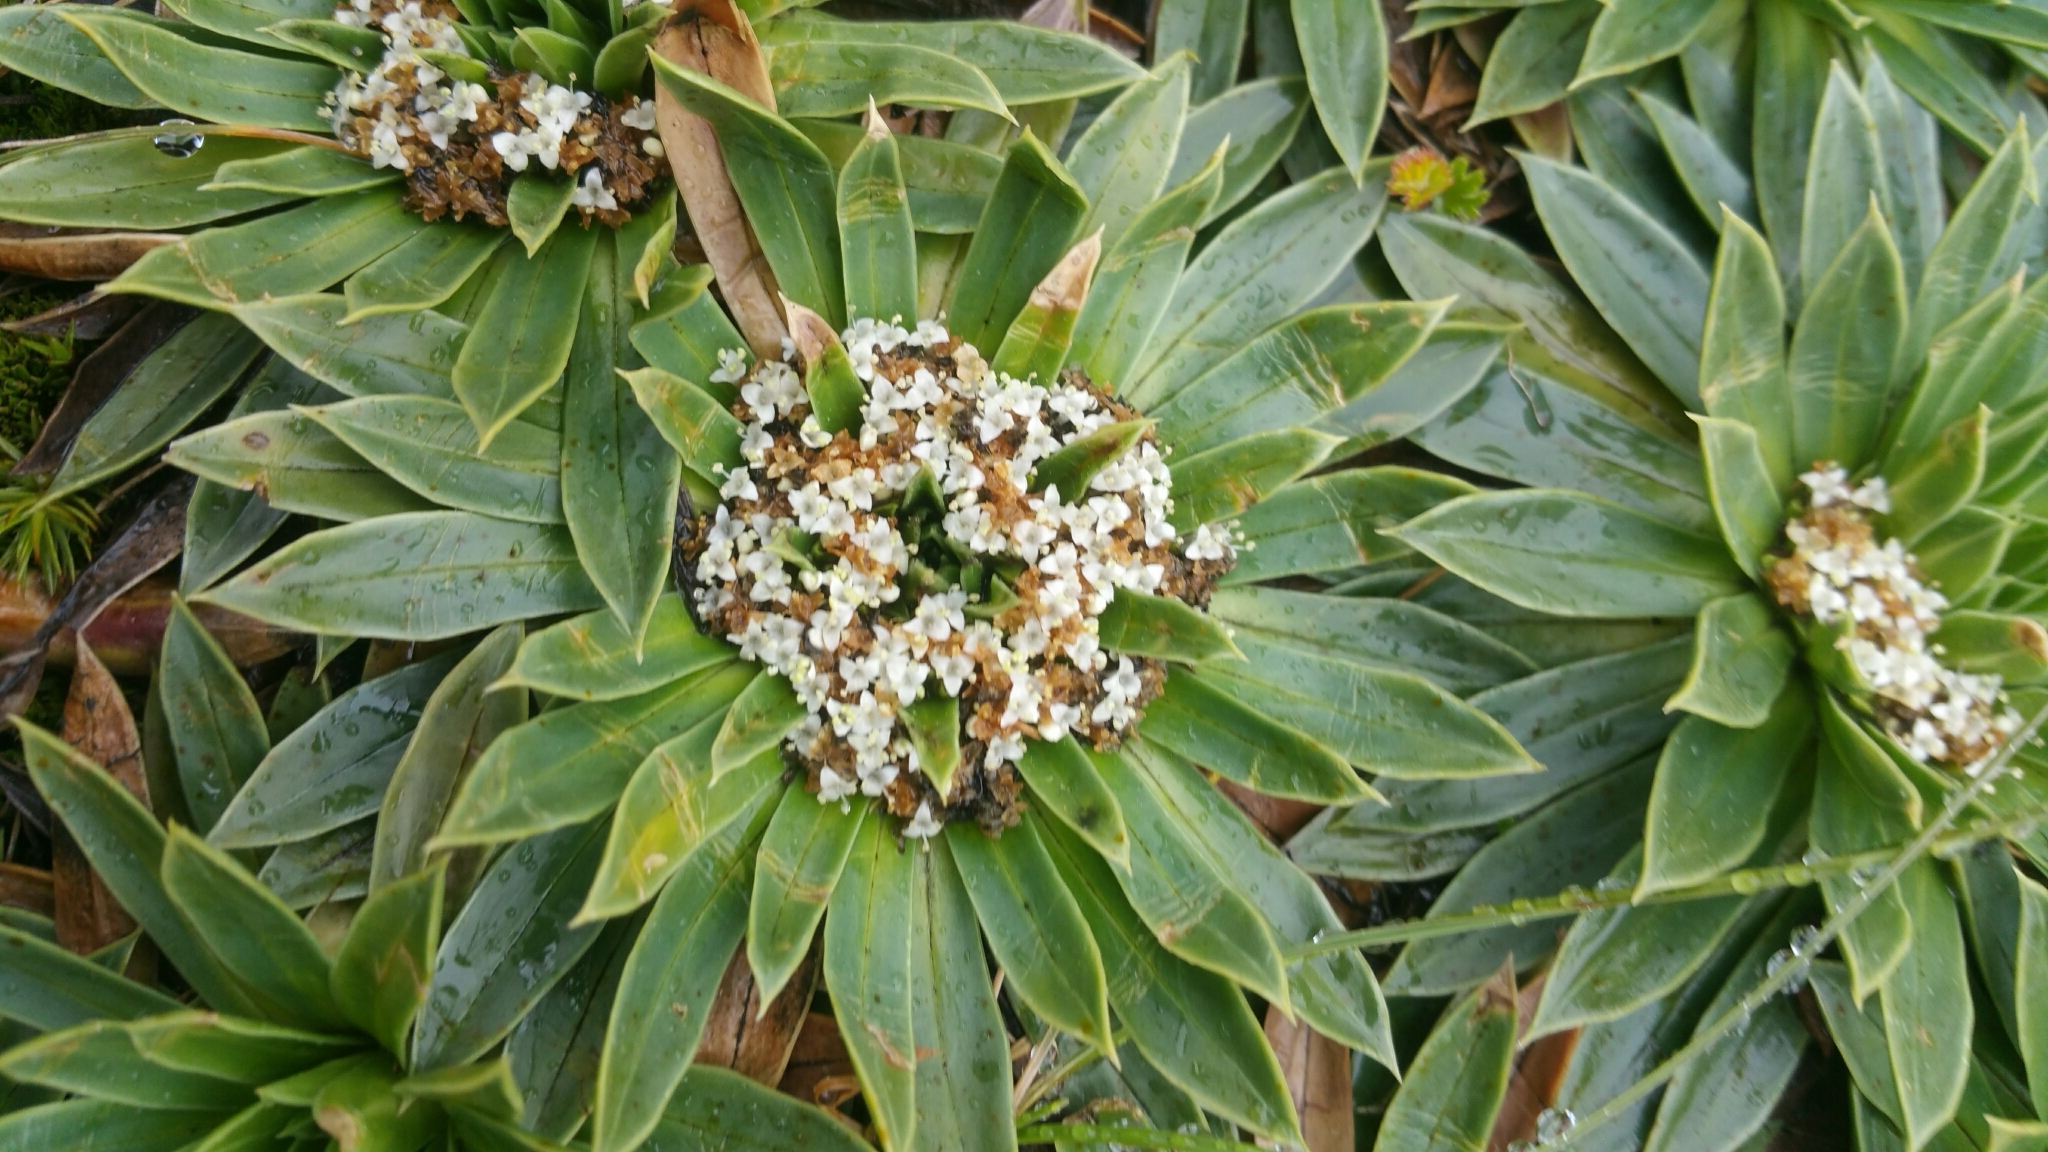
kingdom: Plantae
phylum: Tracheophyta
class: Magnoliopsida
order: Dipsacales
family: Caprifoliaceae
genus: Valeriana
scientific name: Valeriana rigida
